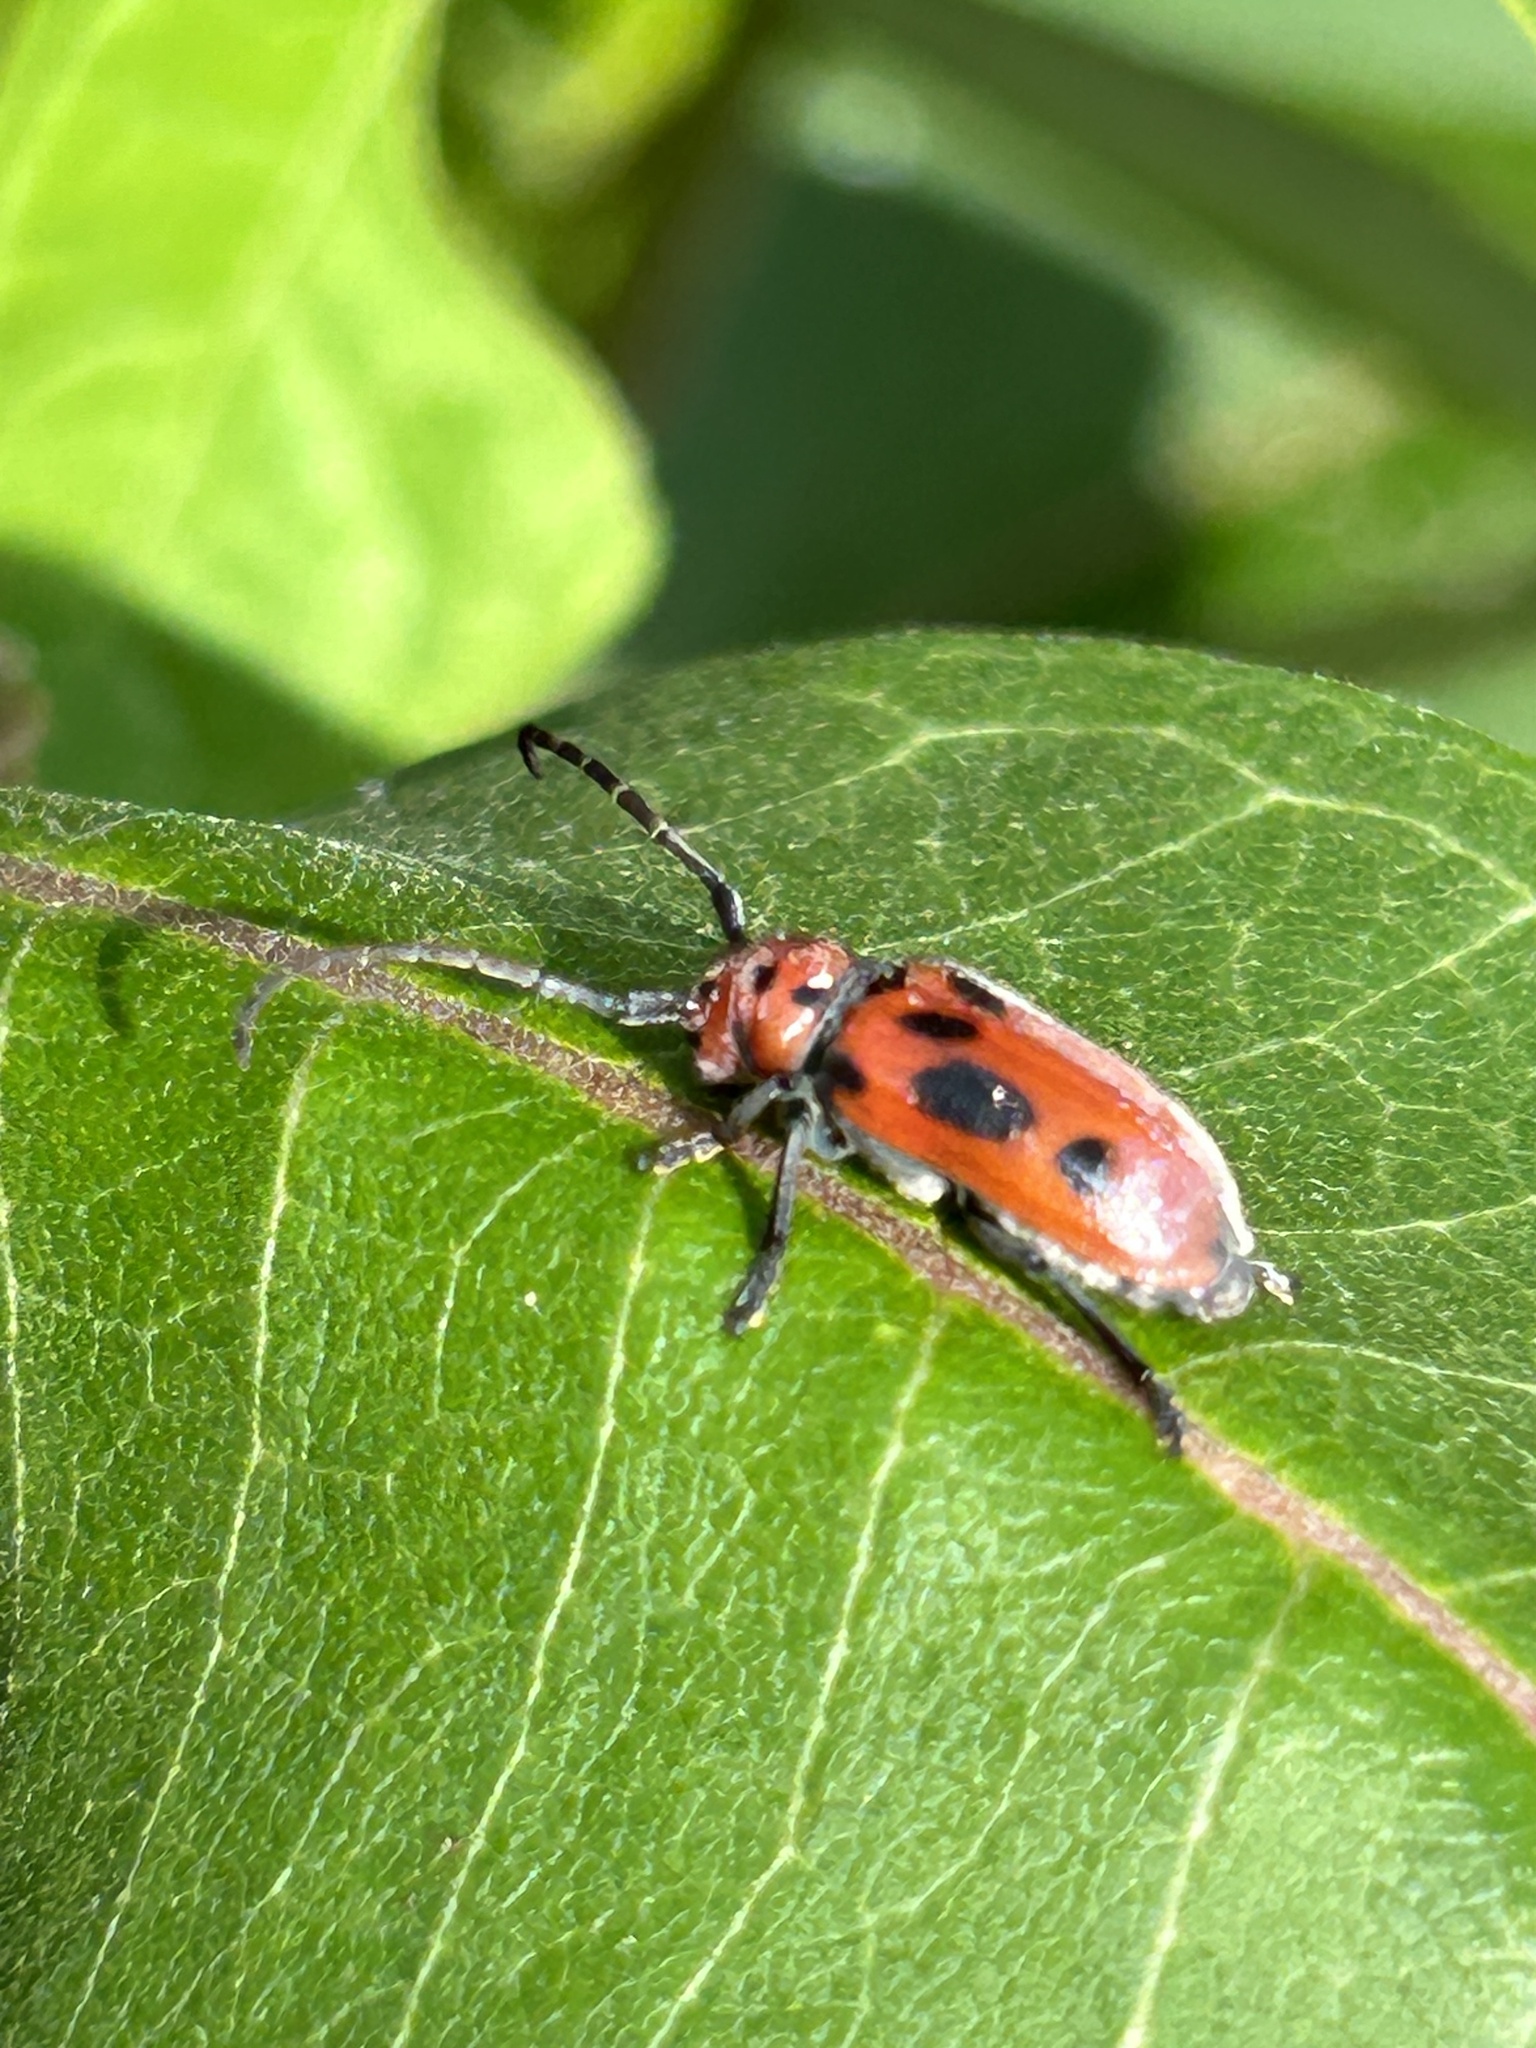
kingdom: Animalia
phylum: Arthropoda
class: Insecta
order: Coleoptera
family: Cerambycidae
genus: Tetraopes
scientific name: Tetraopes tetrophthalmus
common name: Red milkweed beetle
